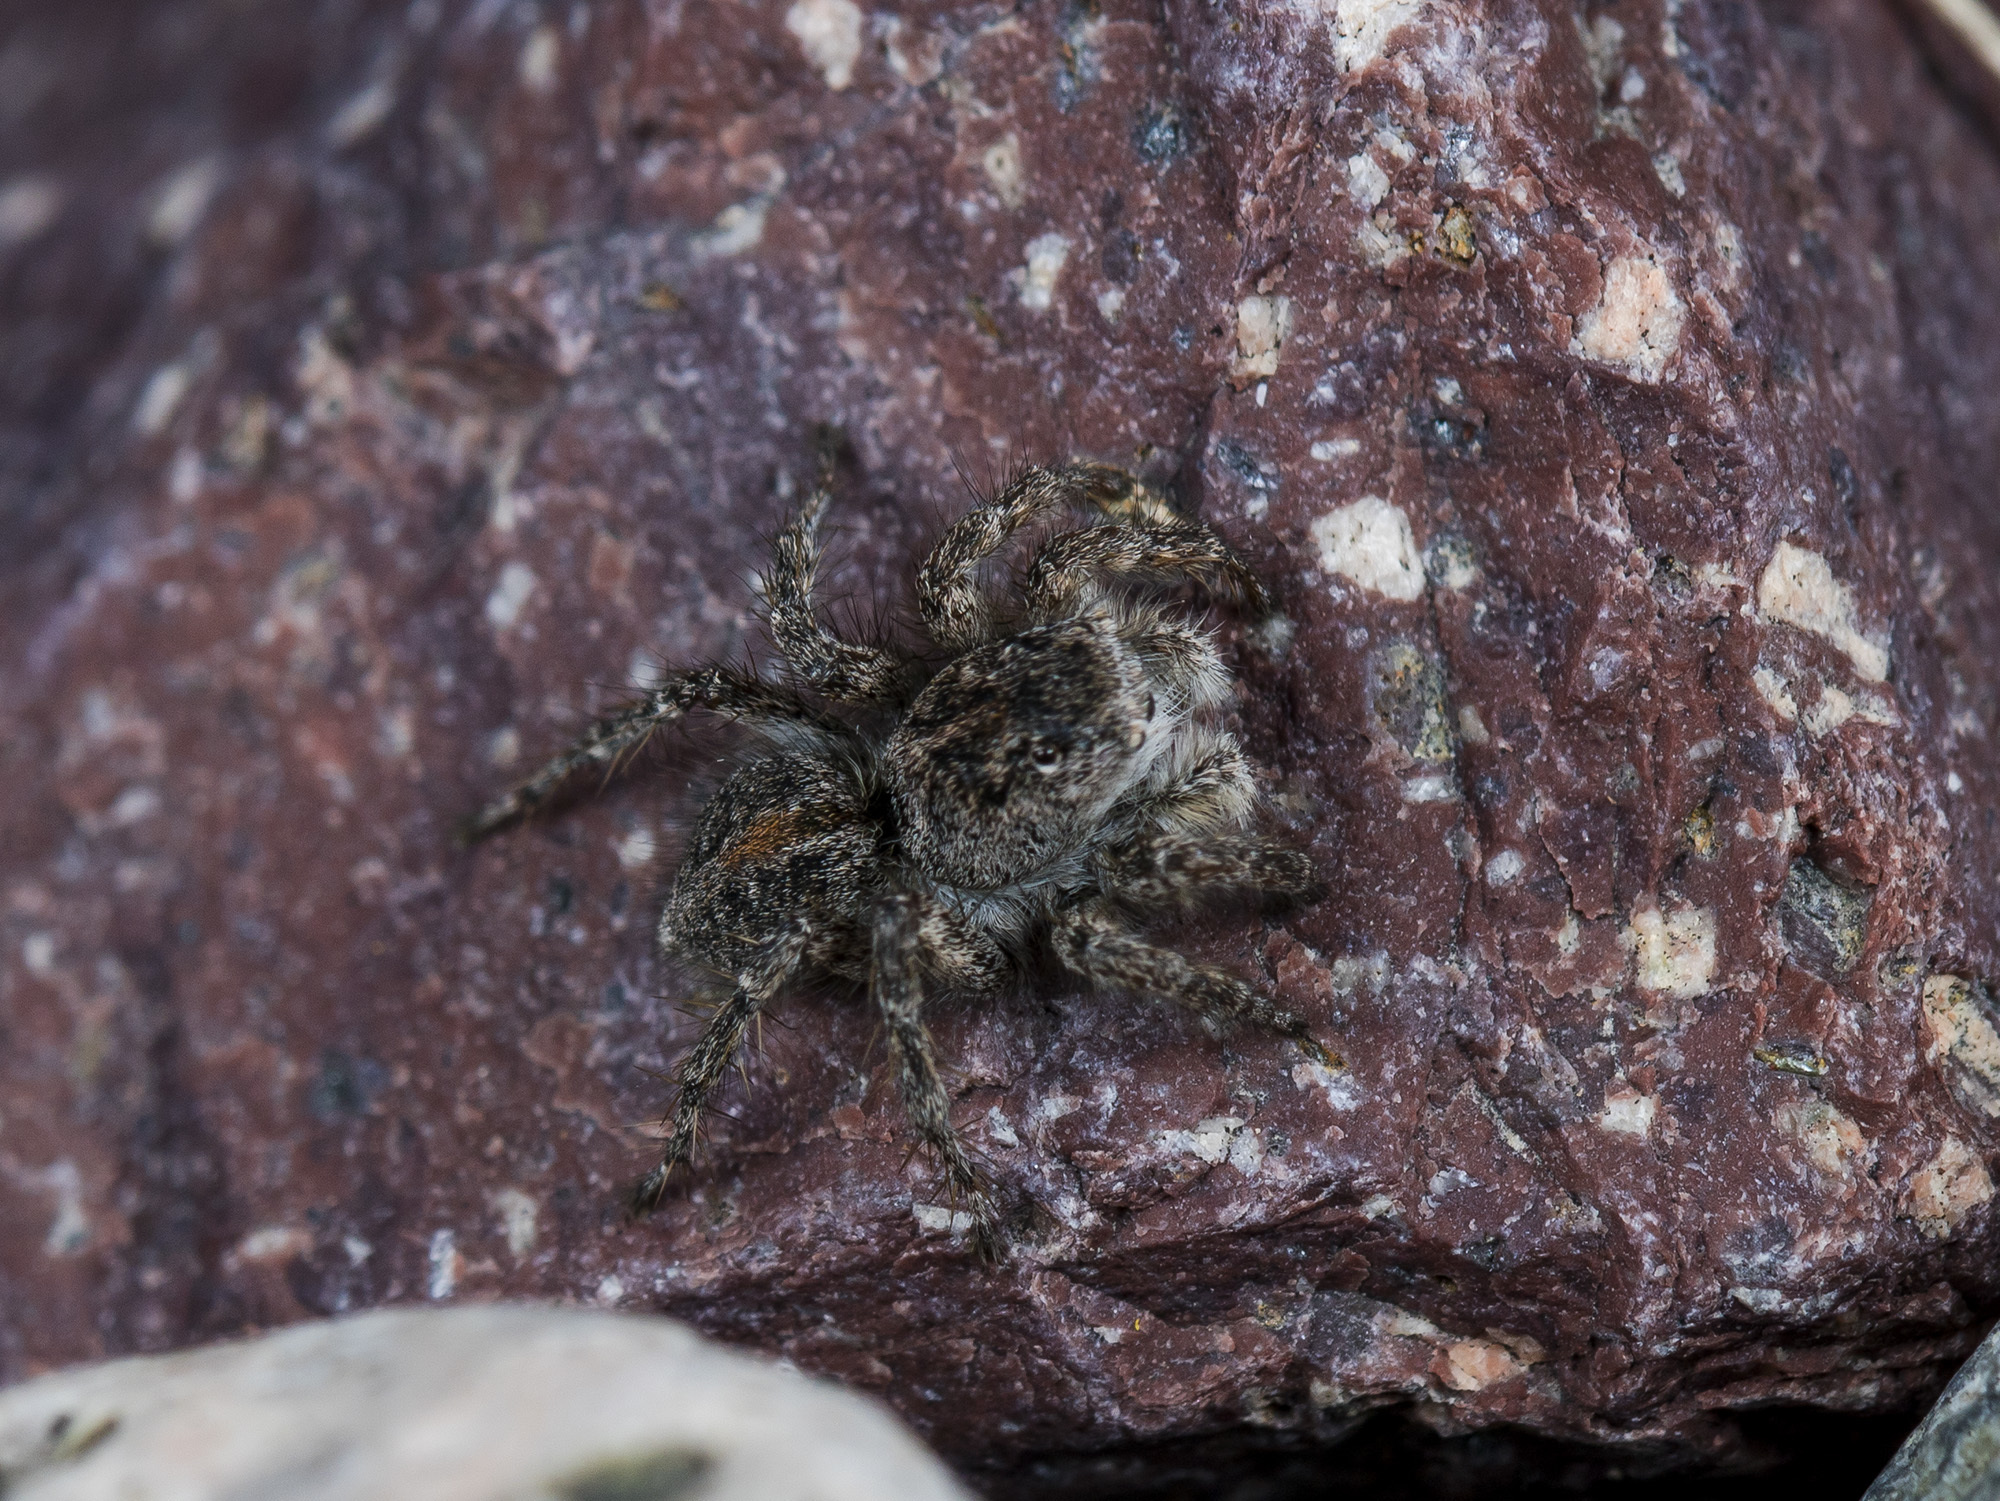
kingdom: Animalia
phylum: Arthropoda
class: Arachnida
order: Araneae
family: Salticidae
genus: Aelurillus
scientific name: Aelurillus dubatolovi
